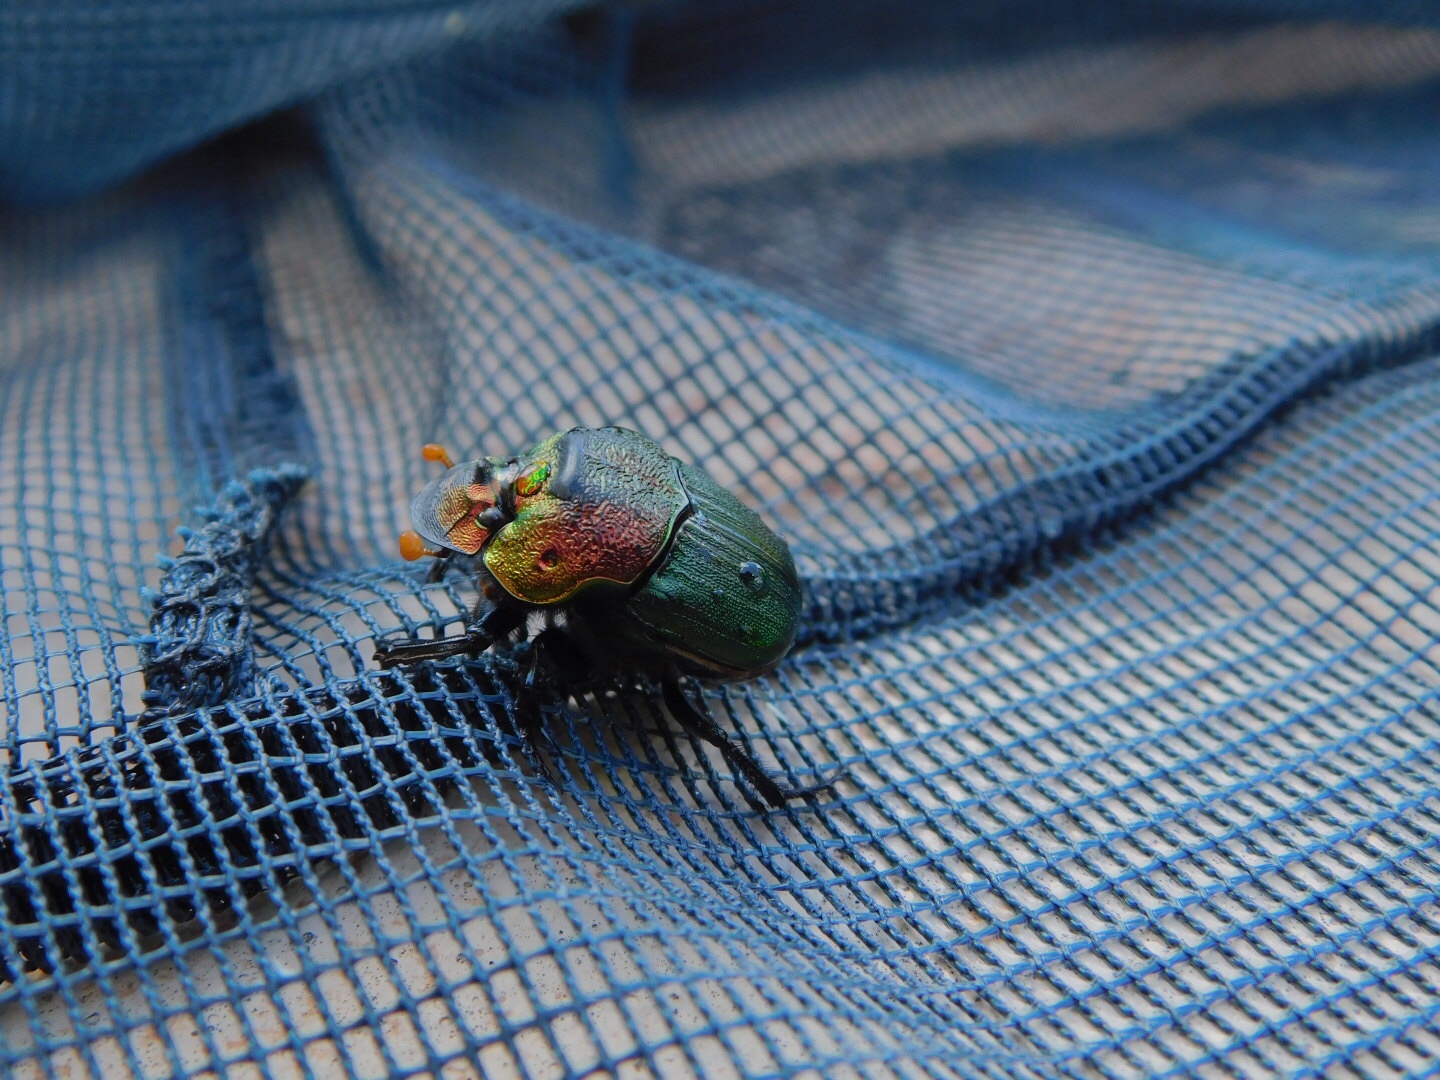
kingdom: Animalia
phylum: Arthropoda
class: Insecta
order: Coleoptera
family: Scarabaeidae
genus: Phanaeus
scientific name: Phanaeus vindex
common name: Rainbow scarab
